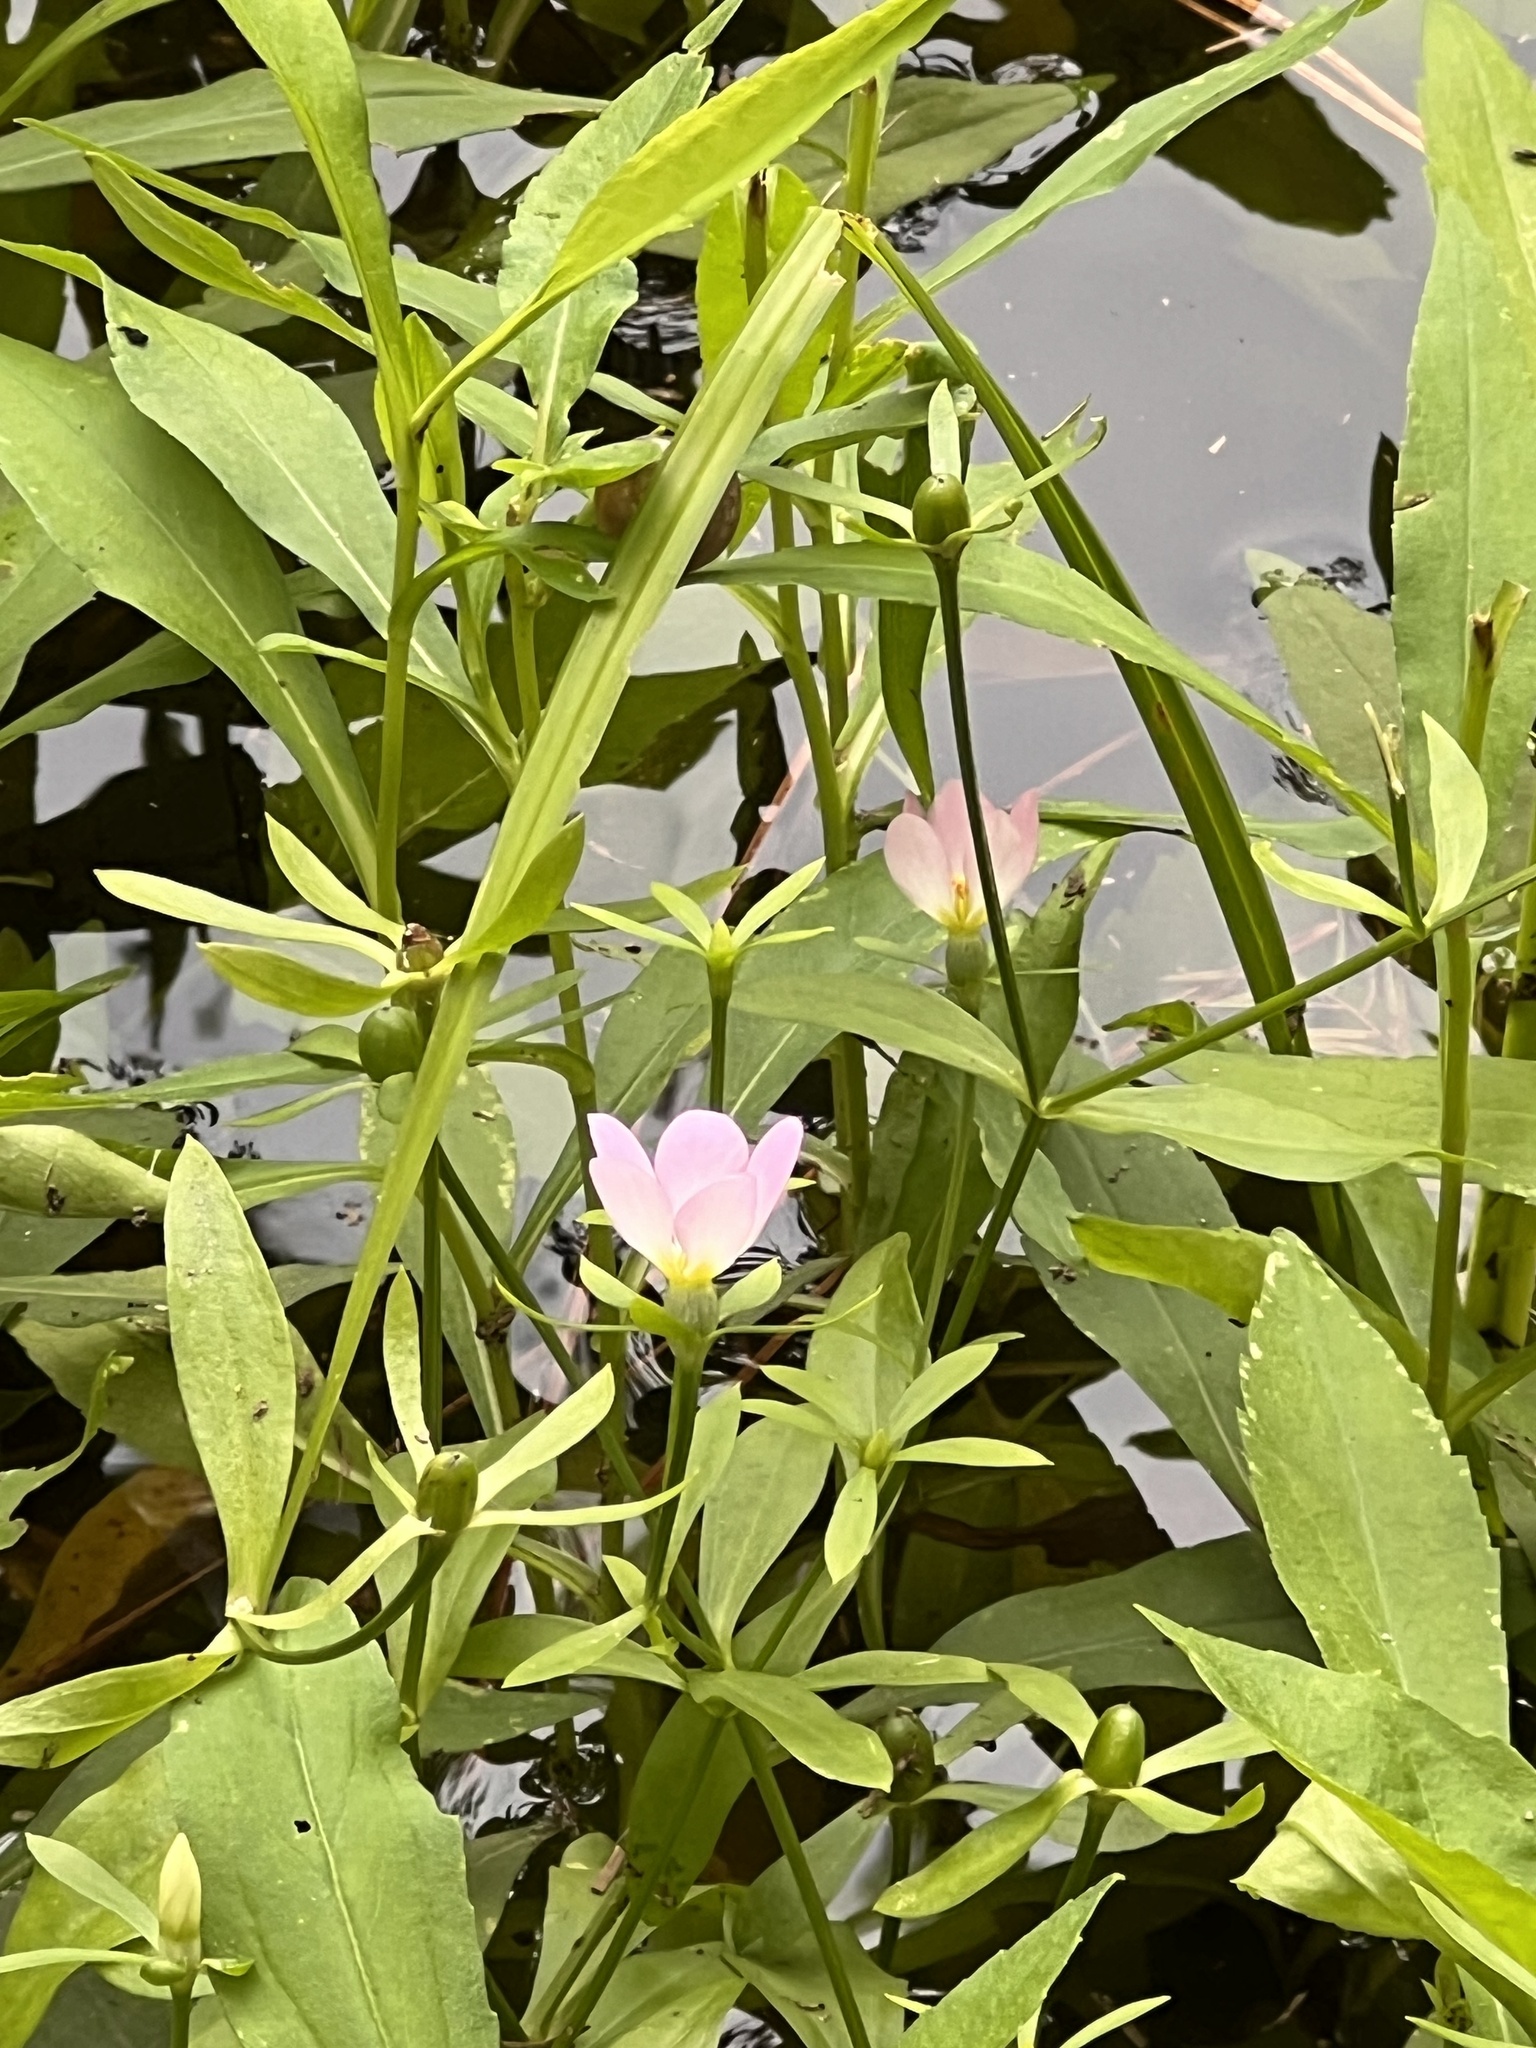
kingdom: Plantae
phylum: Tracheophyta
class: Magnoliopsida
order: Gentianales
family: Gentianaceae
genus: Sabatia
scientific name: Sabatia calycina
